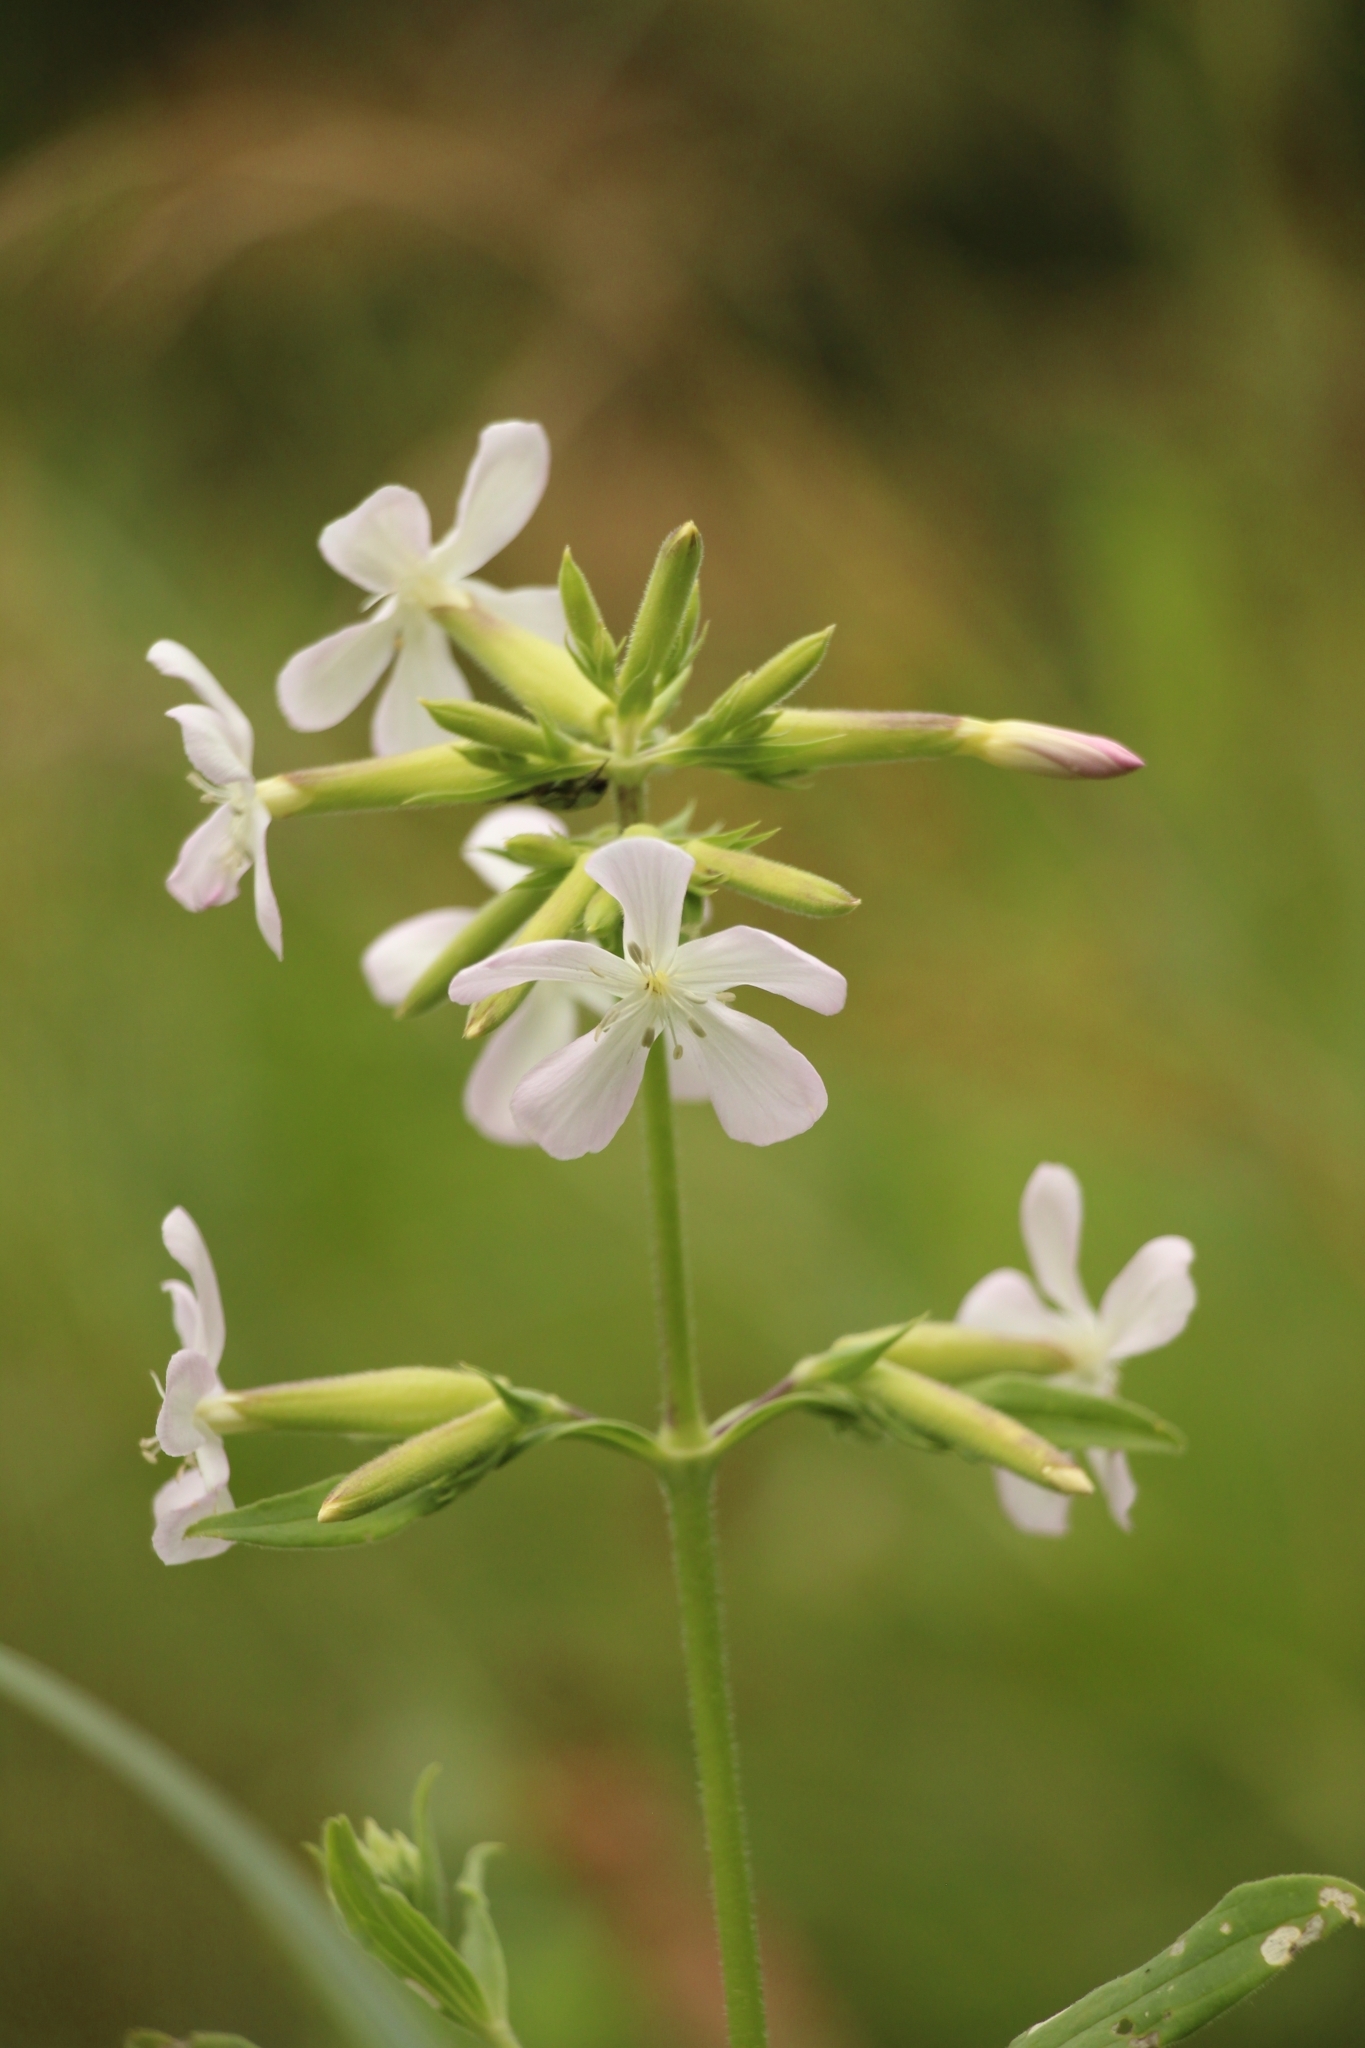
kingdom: Plantae
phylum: Tracheophyta
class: Magnoliopsida
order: Caryophyllales
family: Caryophyllaceae
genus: Saponaria
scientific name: Saponaria officinalis
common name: Soapwort
